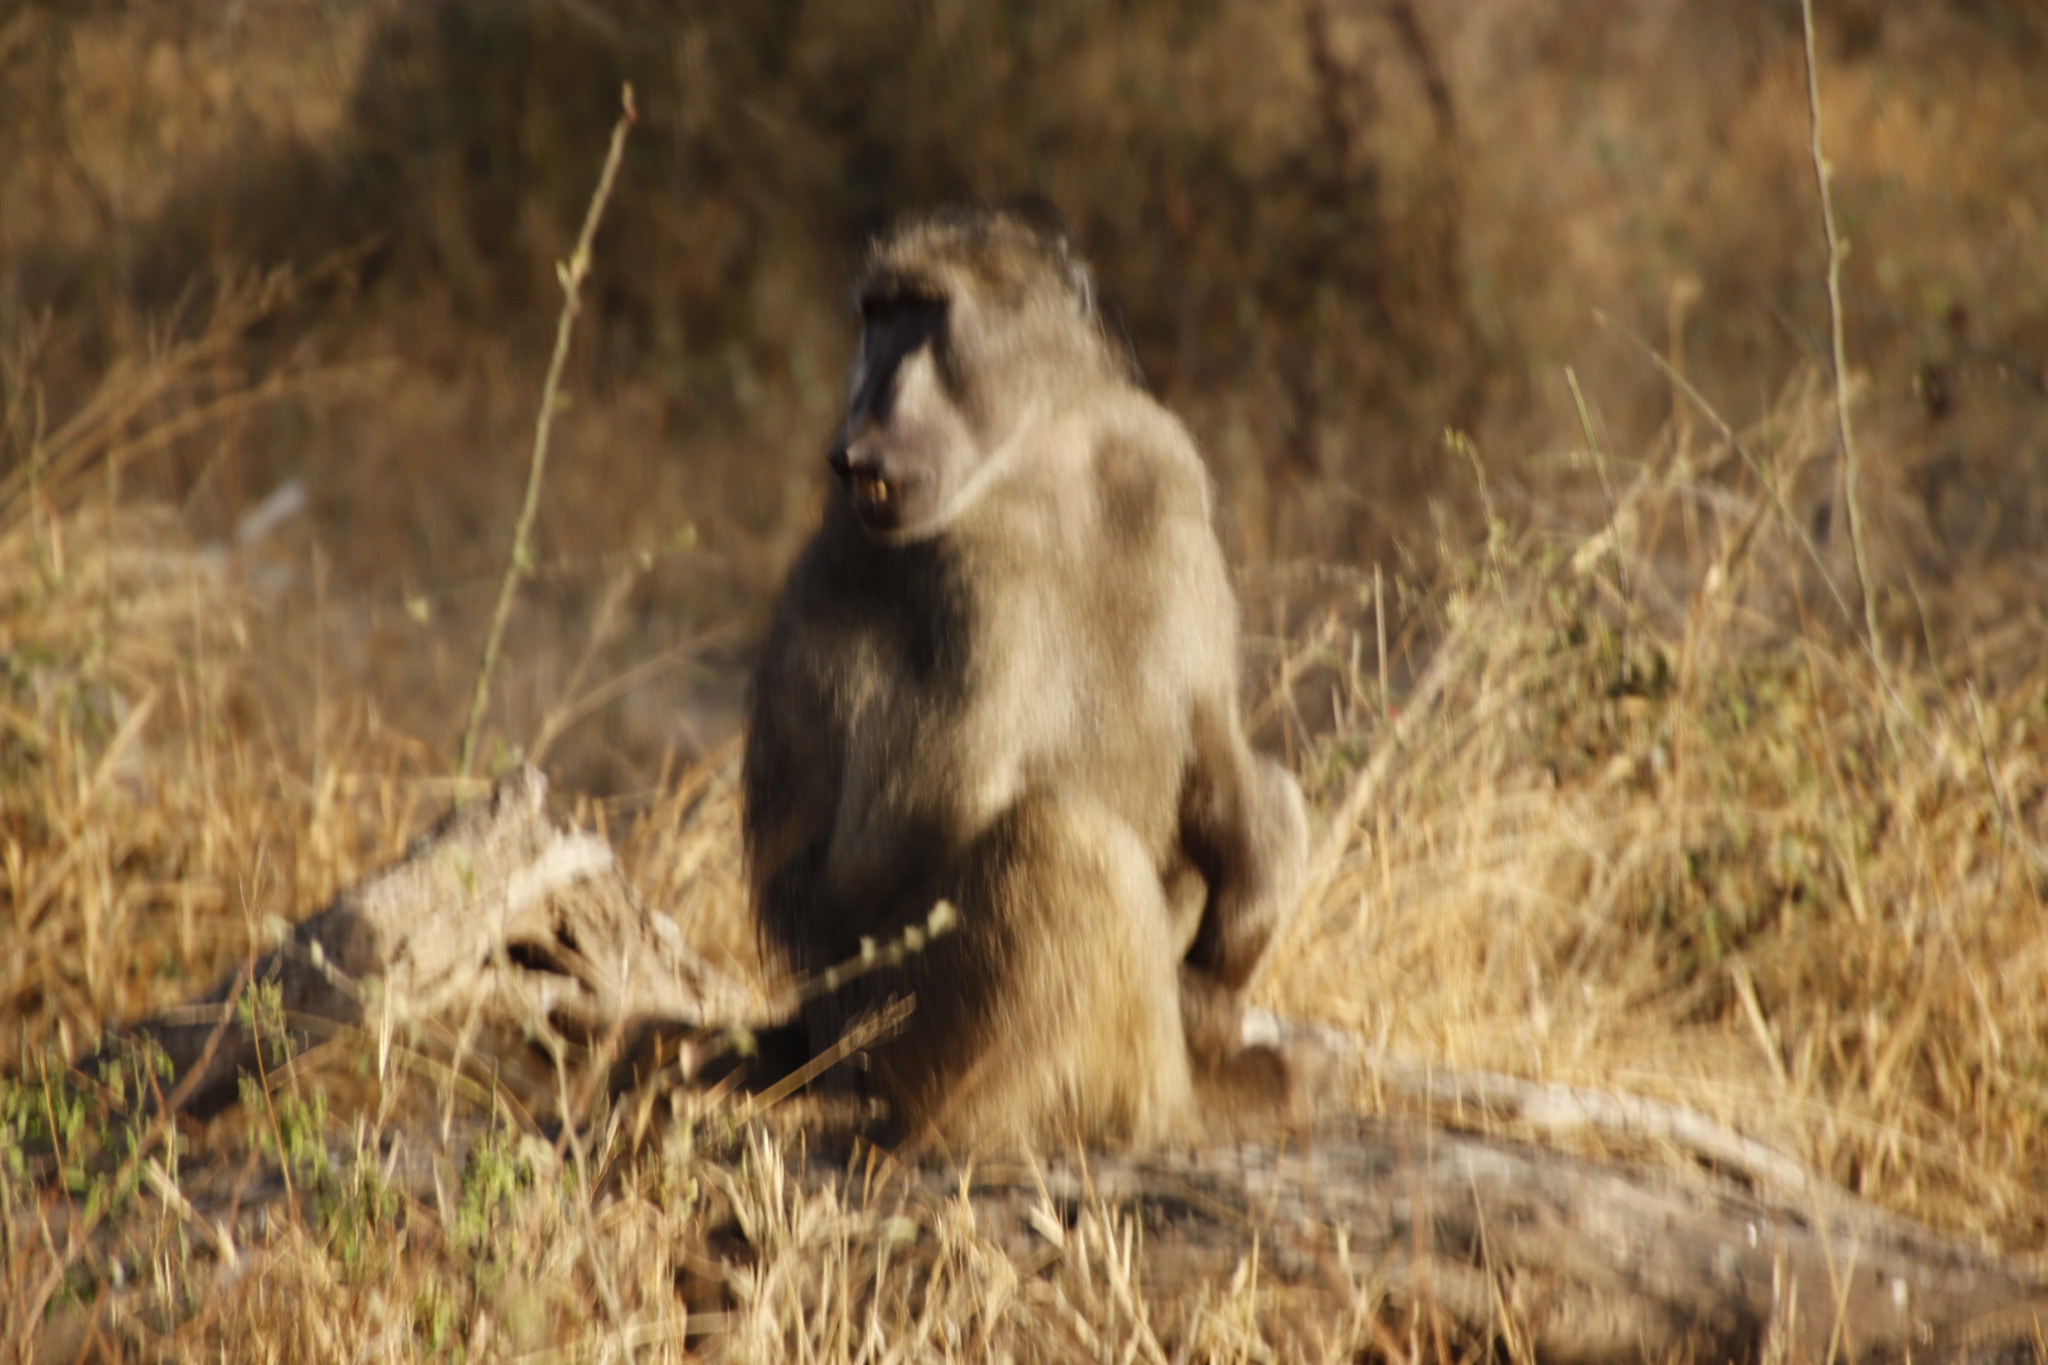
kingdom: Animalia
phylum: Chordata
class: Mammalia
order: Primates
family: Cercopithecidae
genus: Papio
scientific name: Papio ursinus
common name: Chacma baboon
